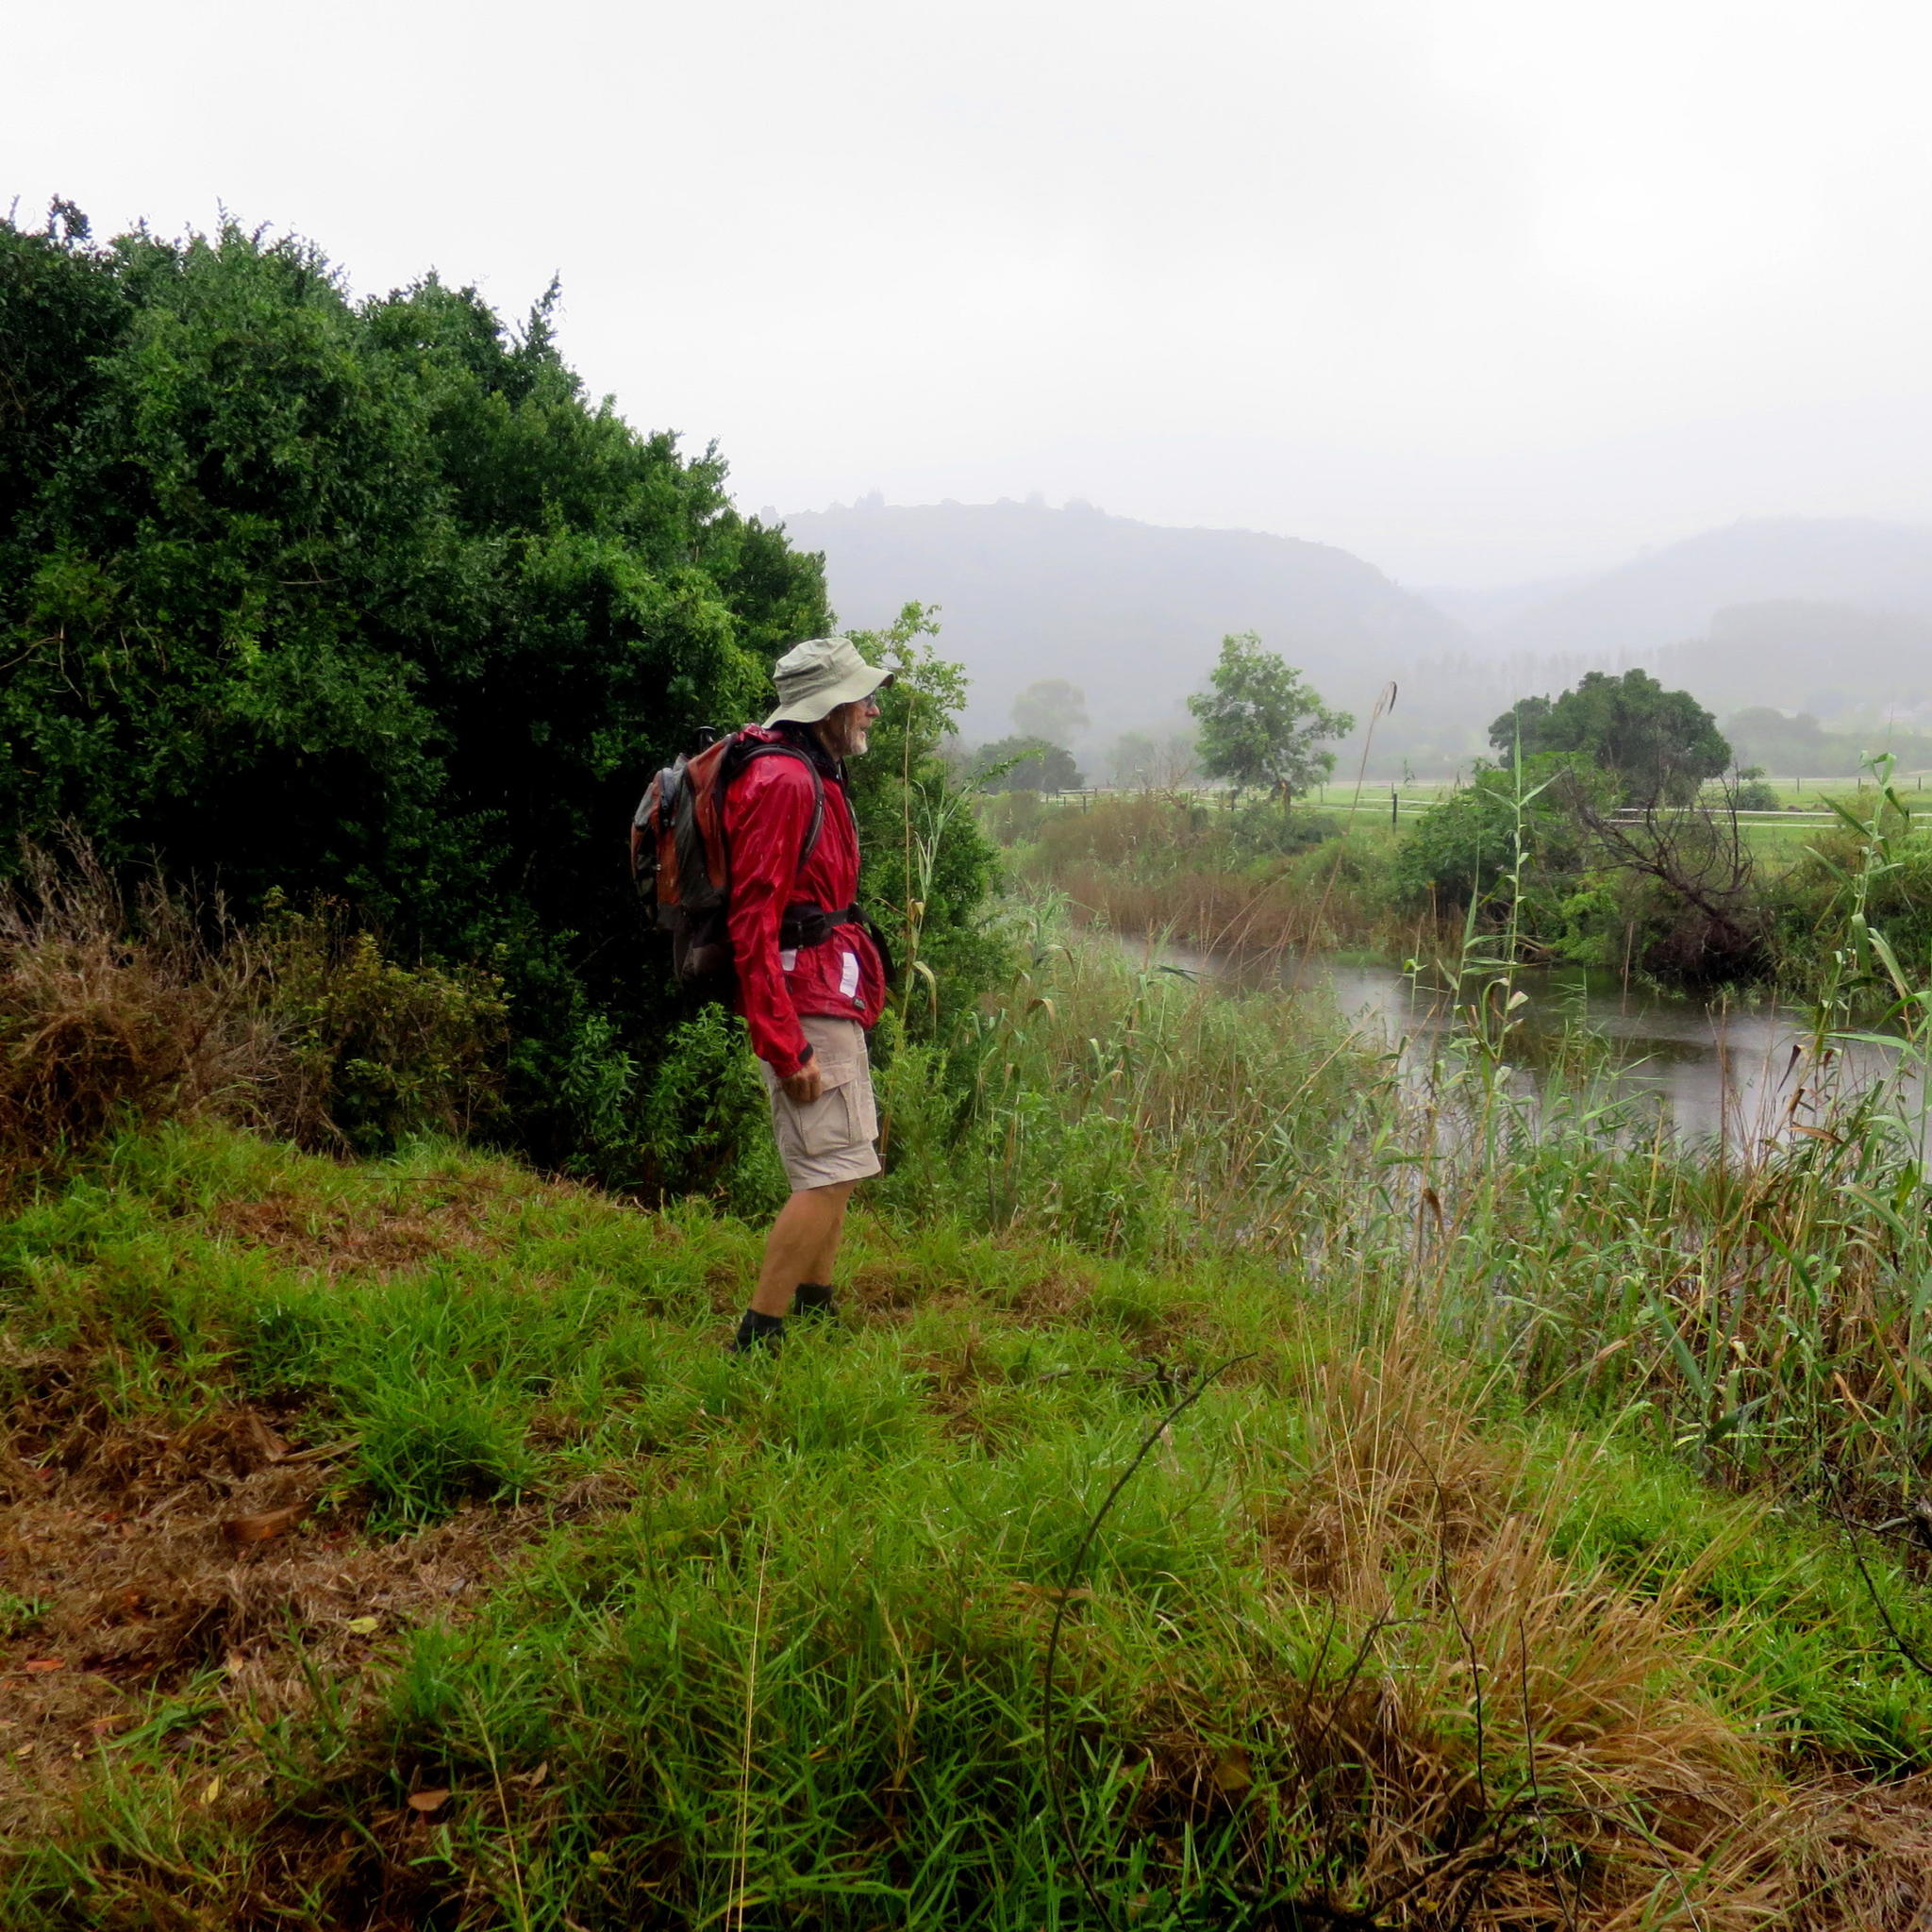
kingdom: Plantae
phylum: Tracheophyta
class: Liliopsida
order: Poales
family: Poaceae
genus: Phragmites
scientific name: Phragmites australis
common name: Common reed
